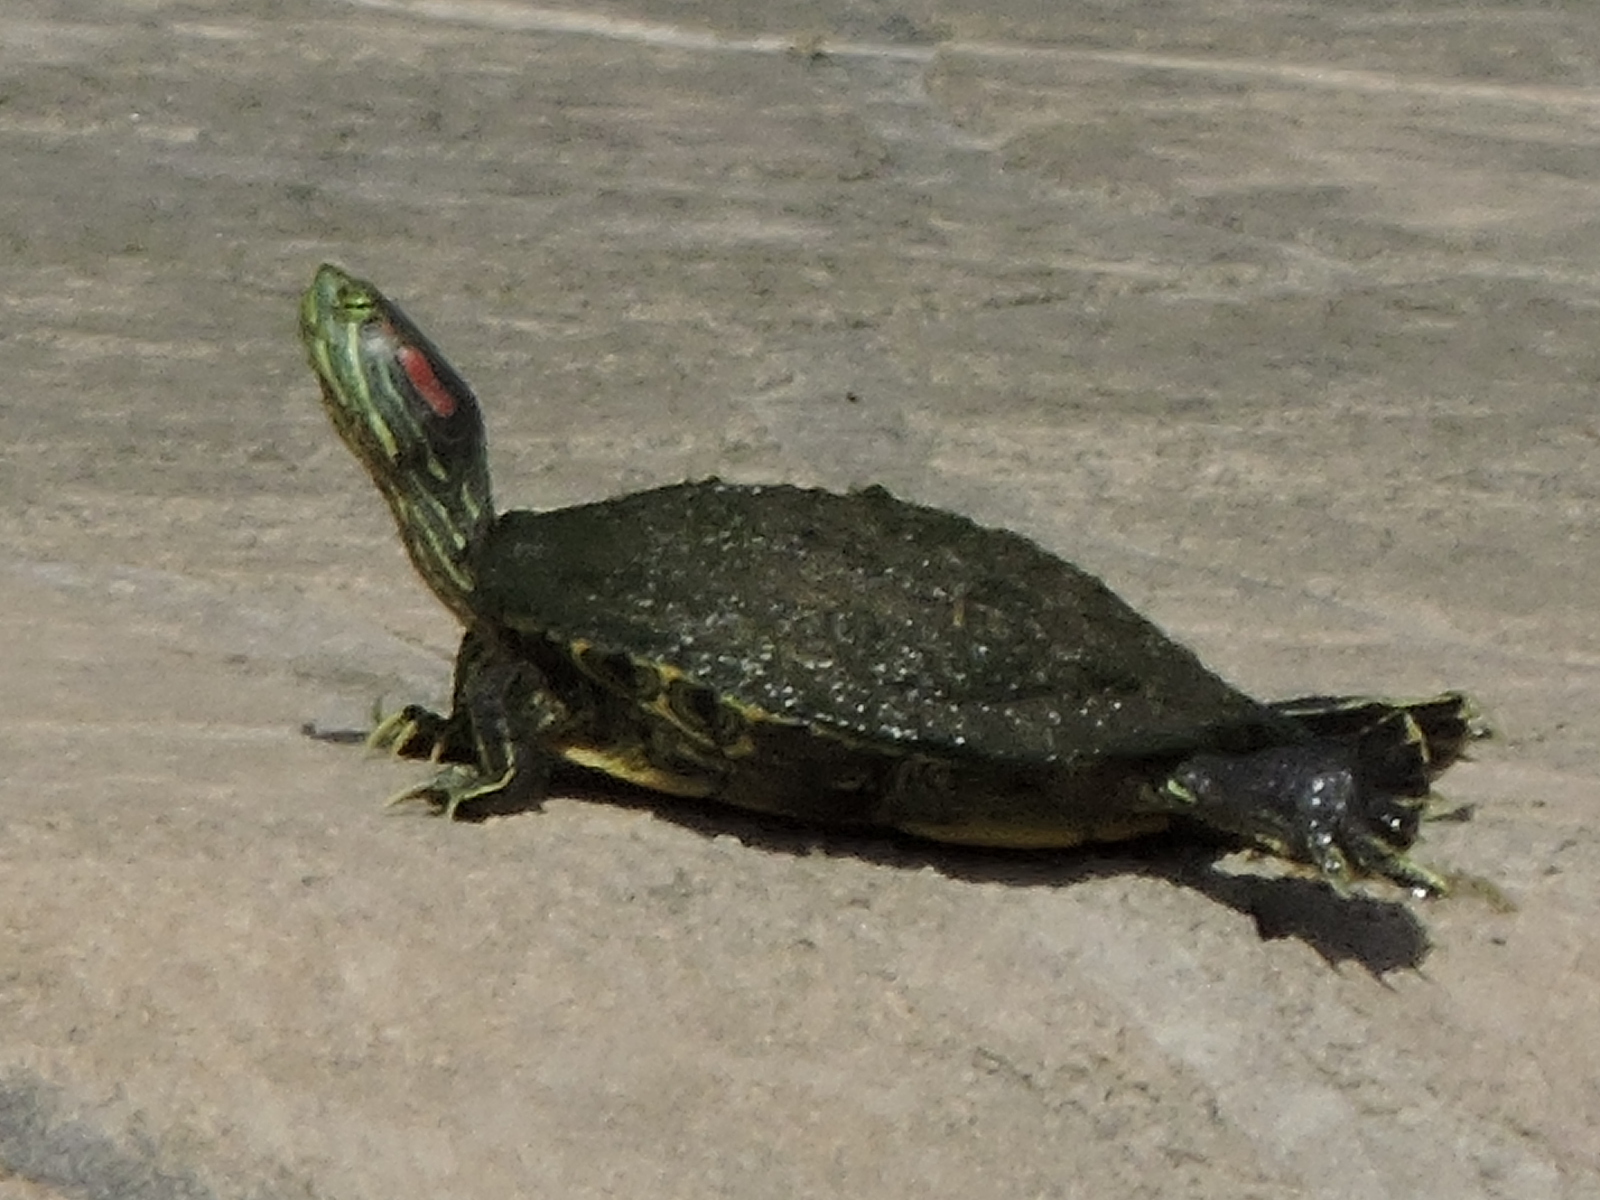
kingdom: Animalia
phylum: Chordata
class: Testudines
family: Emydidae
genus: Trachemys
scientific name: Trachemys scripta
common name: Slider
